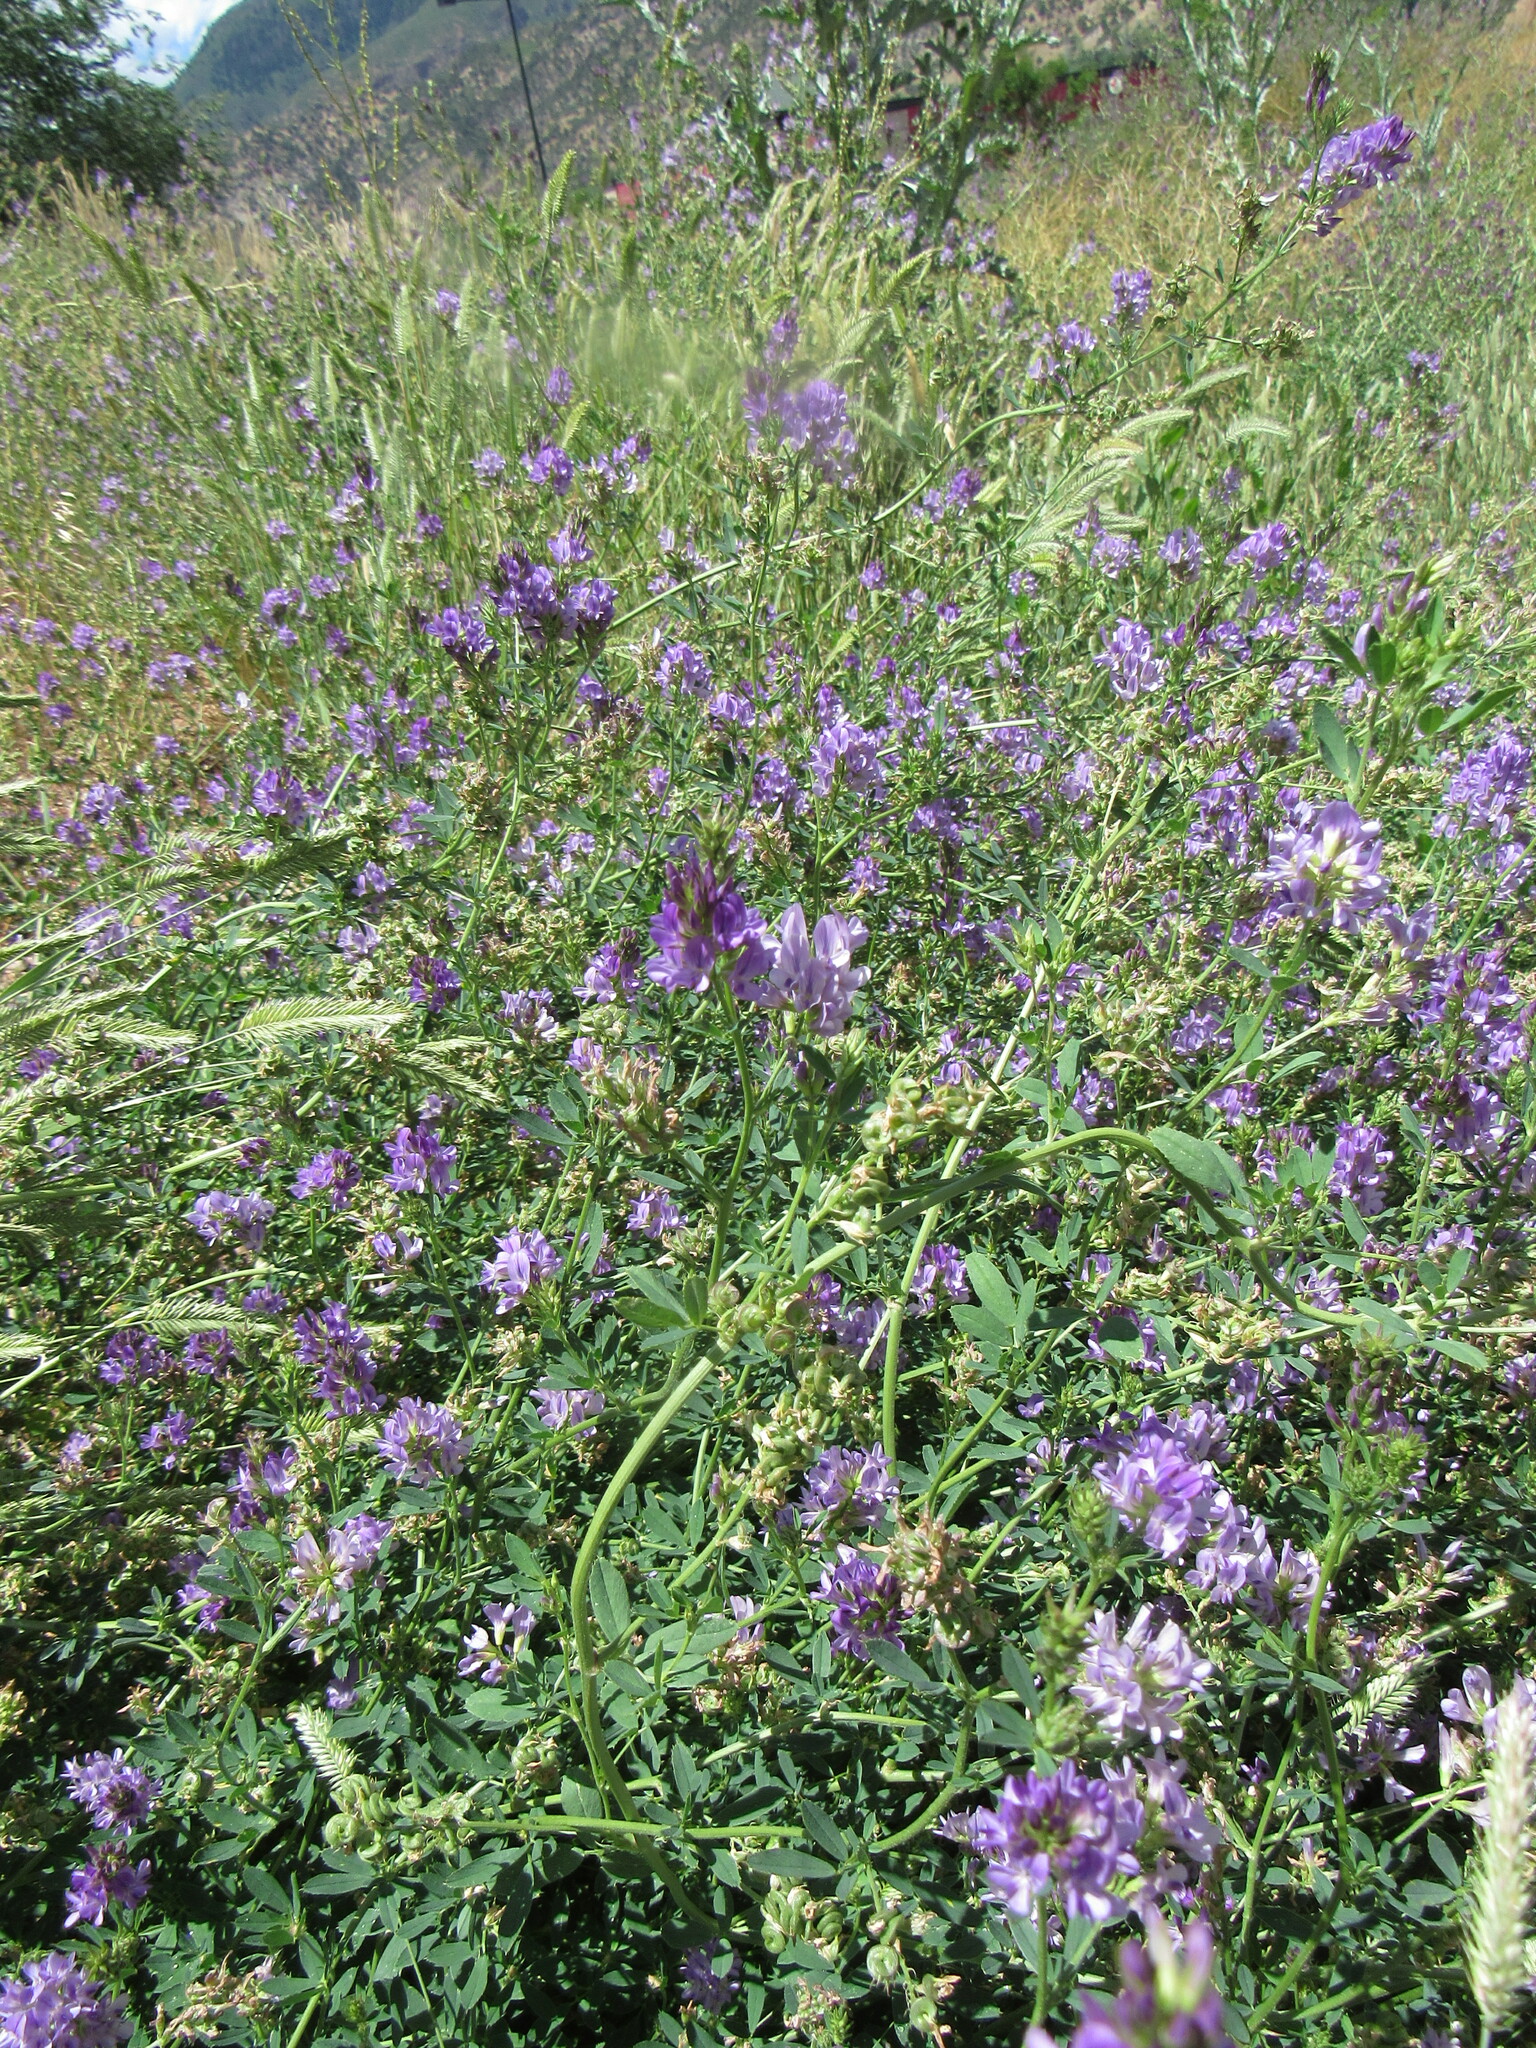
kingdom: Plantae
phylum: Tracheophyta
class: Magnoliopsida
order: Fabales
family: Fabaceae
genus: Medicago
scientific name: Medicago sativa
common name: Alfalfa
